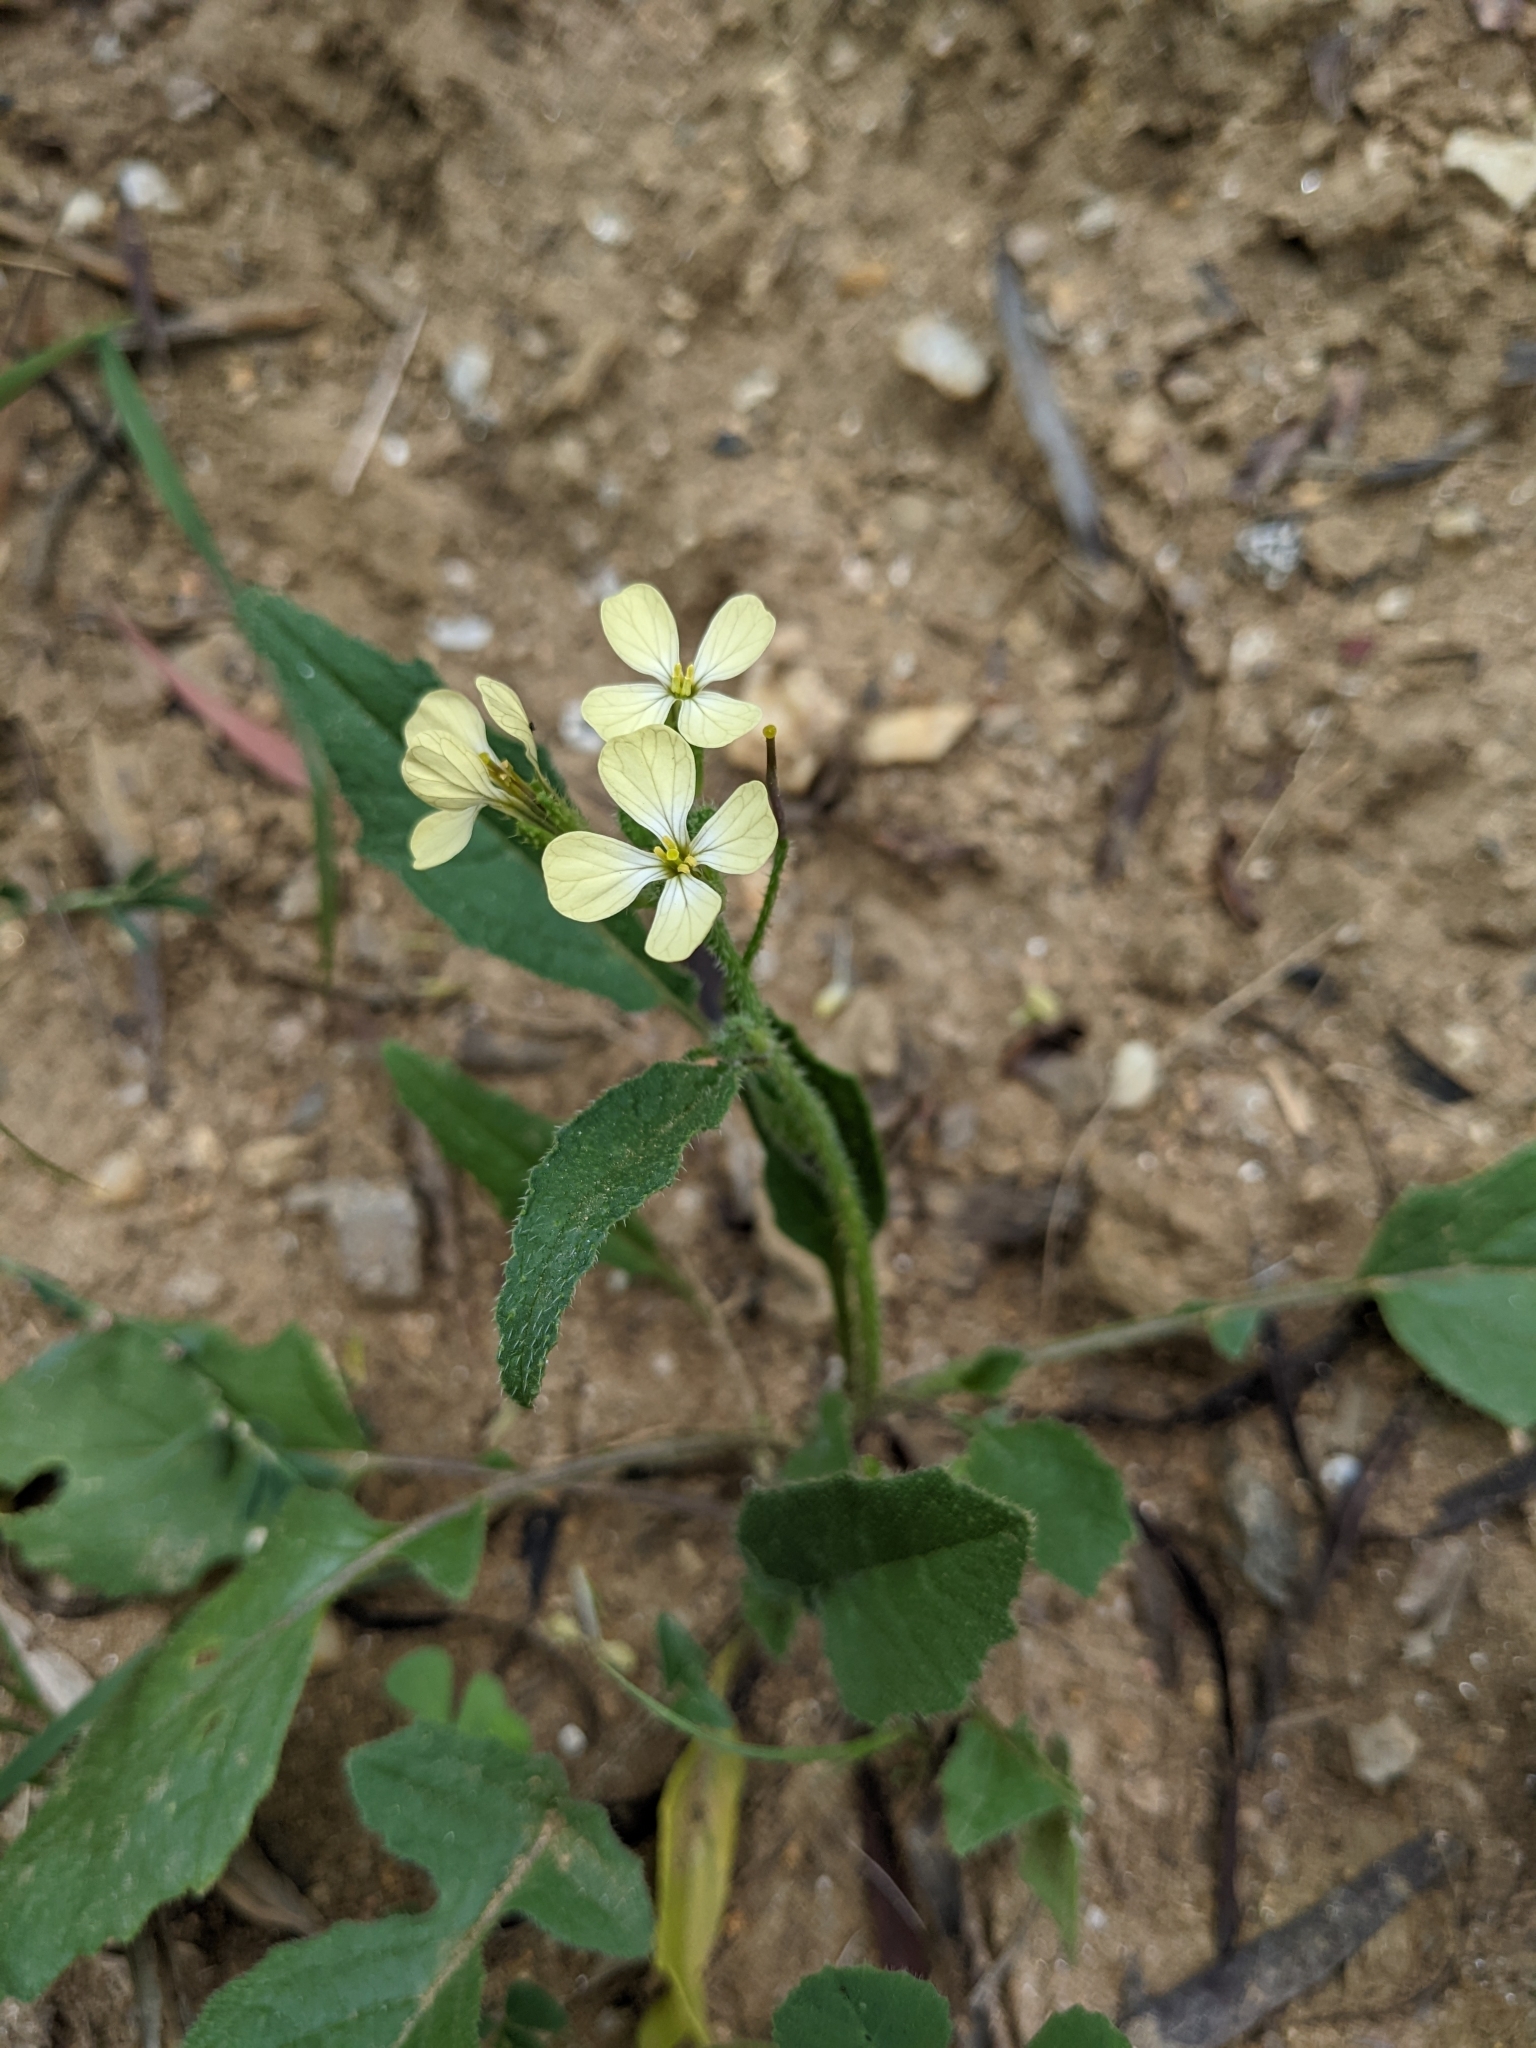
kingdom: Plantae
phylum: Tracheophyta
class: Magnoliopsida
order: Brassicales
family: Brassicaceae
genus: Raphanus
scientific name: Raphanus raphanistrum
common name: Wild radish
